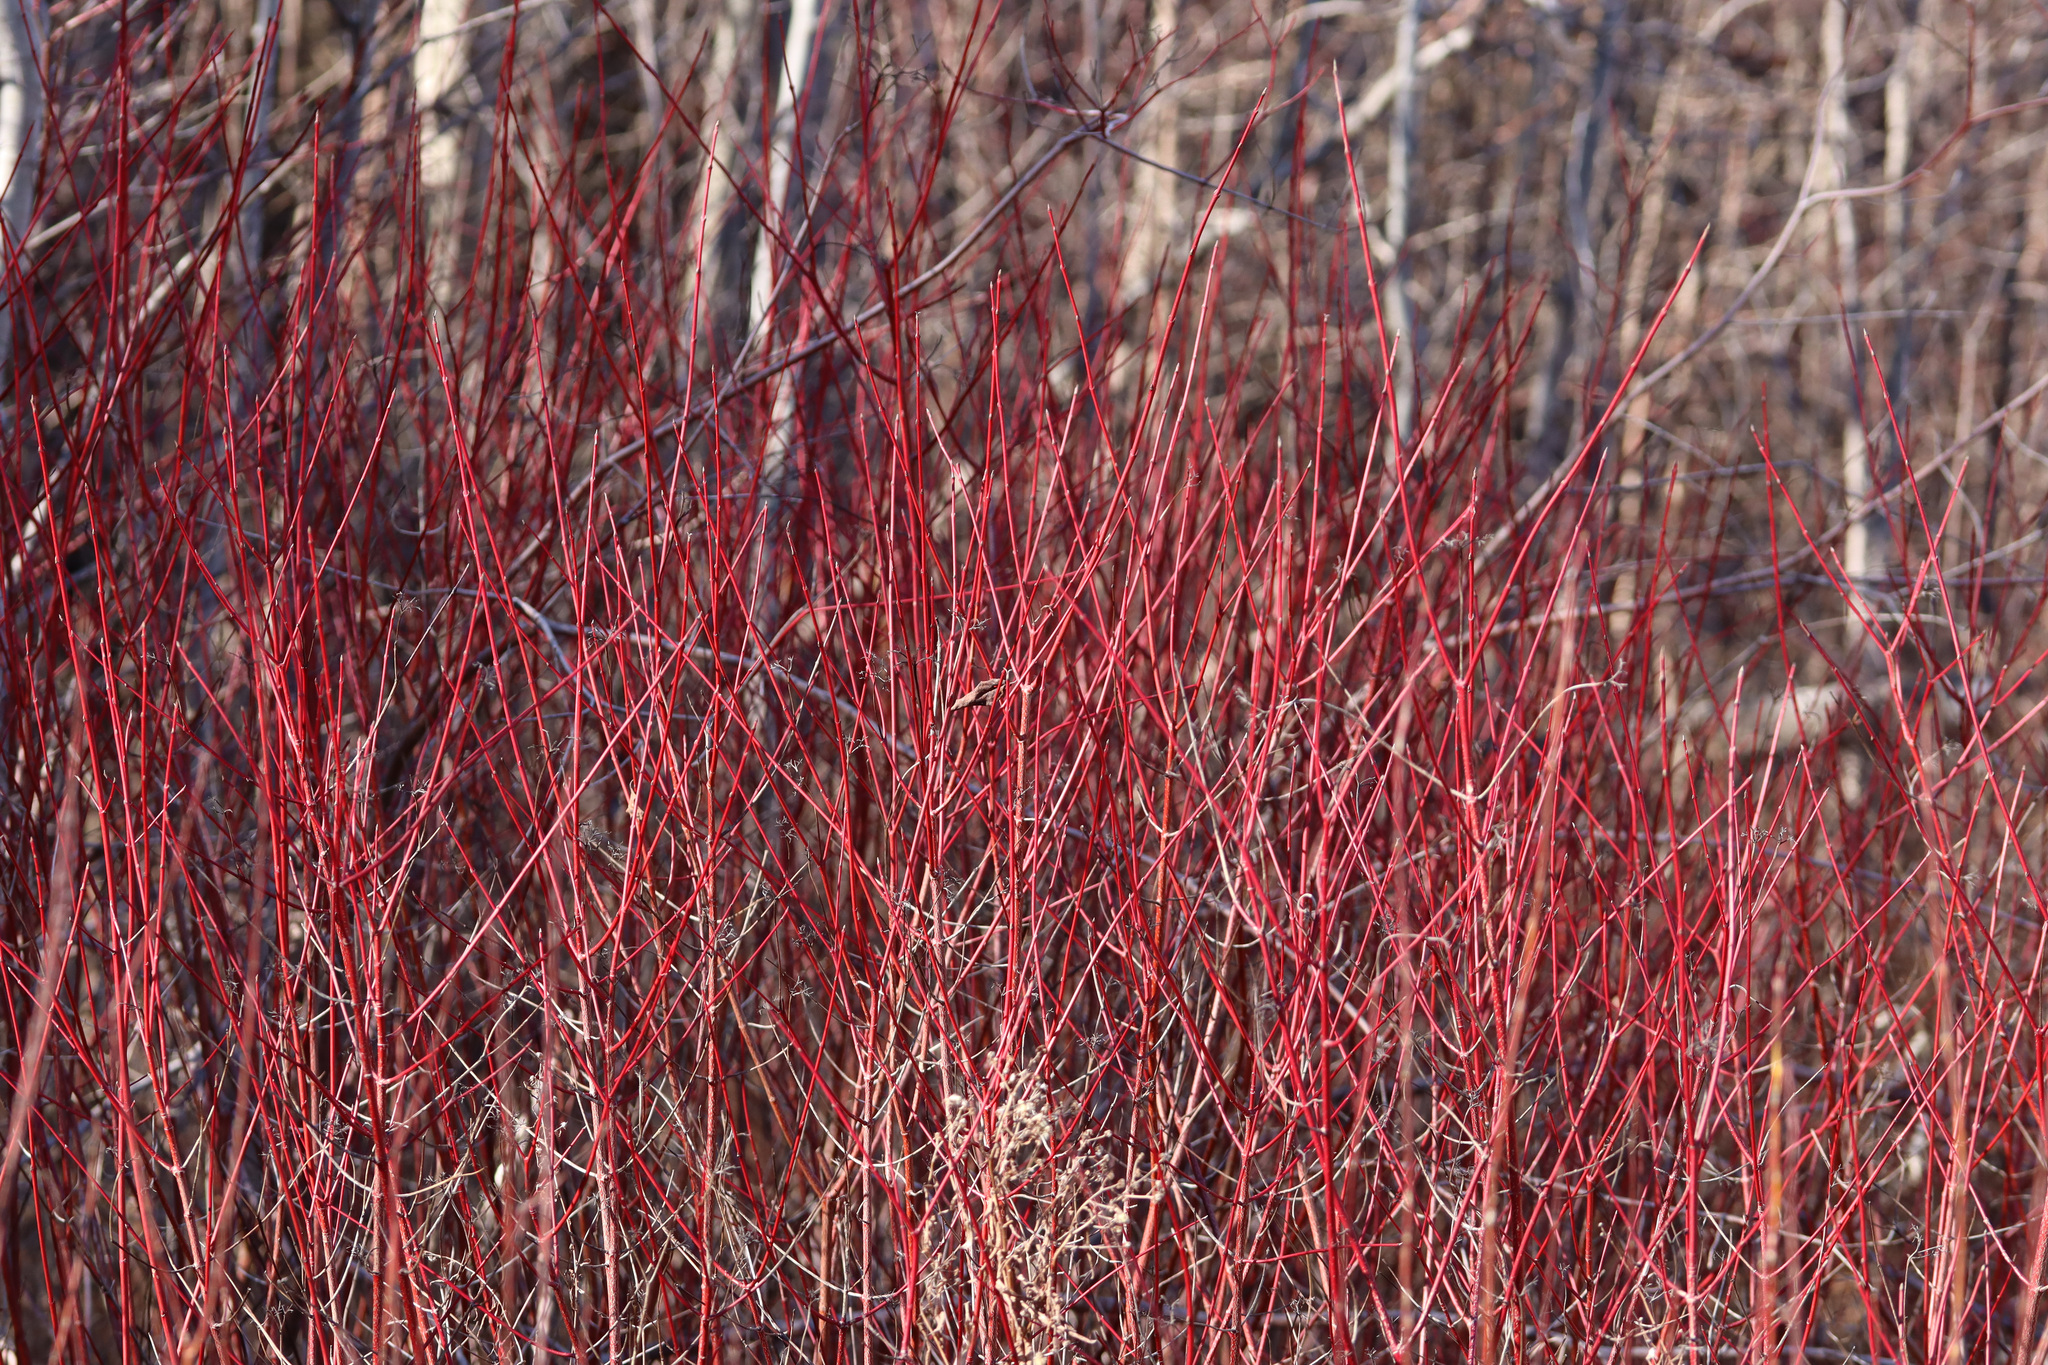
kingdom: Plantae
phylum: Tracheophyta
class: Magnoliopsida
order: Cornales
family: Cornaceae
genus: Cornus
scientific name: Cornus sericea
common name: Red-osier dogwood
